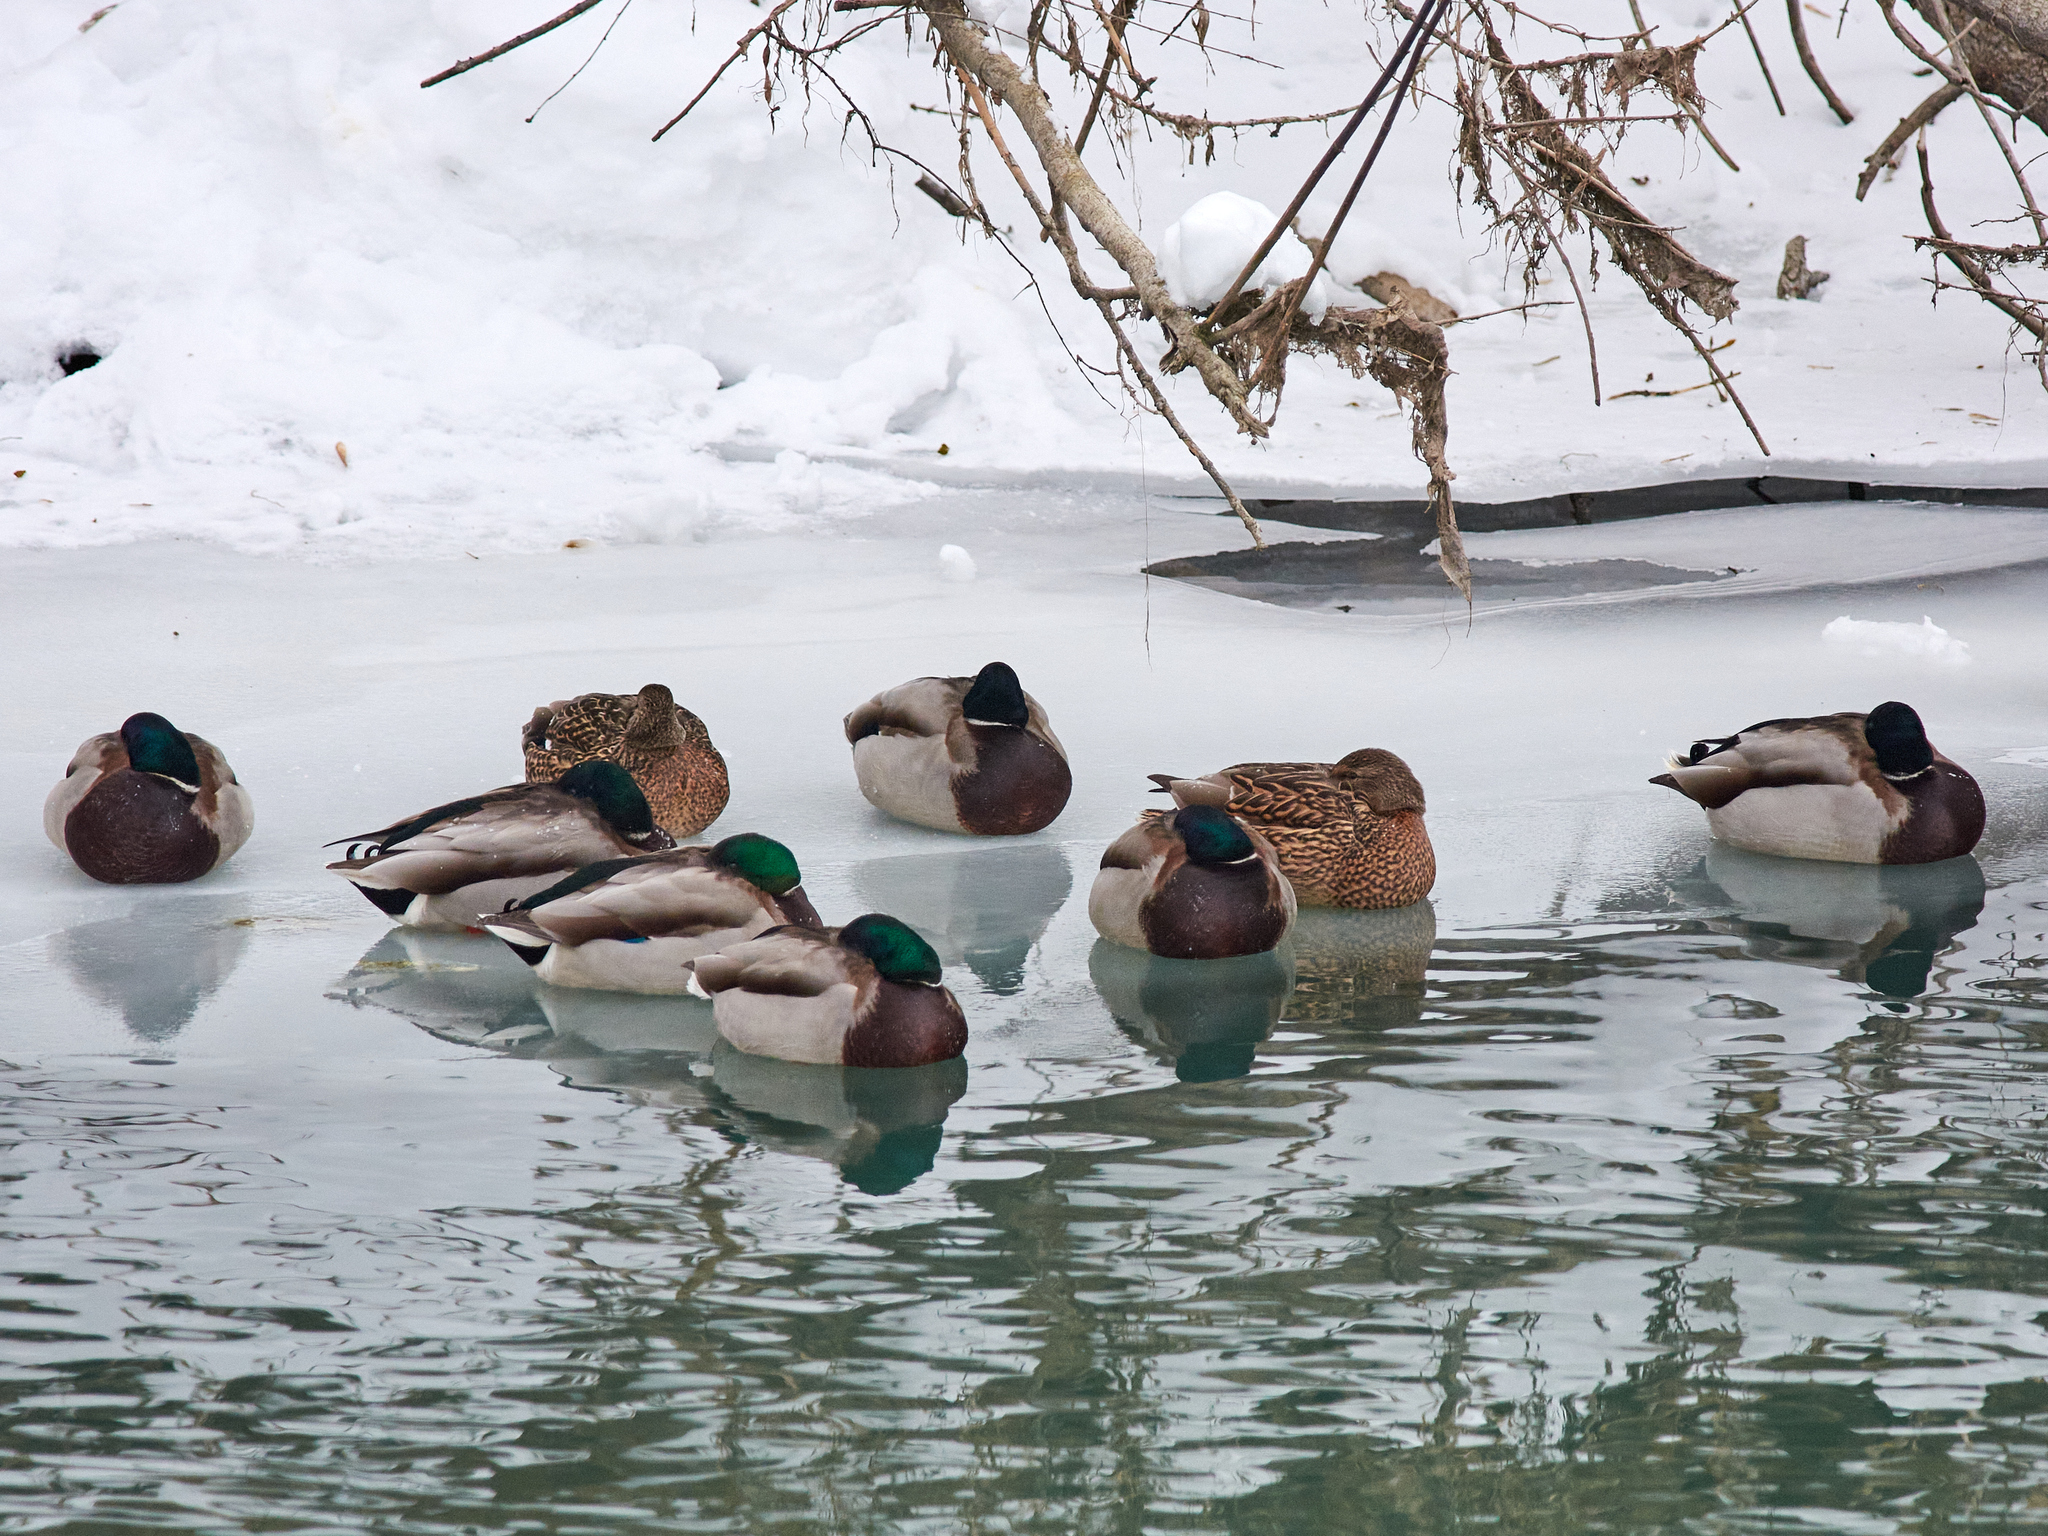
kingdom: Animalia
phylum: Chordata
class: Aves
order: Anseriformes
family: Anatidae
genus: Anas
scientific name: Anas platyrhynchos
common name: Mallard
